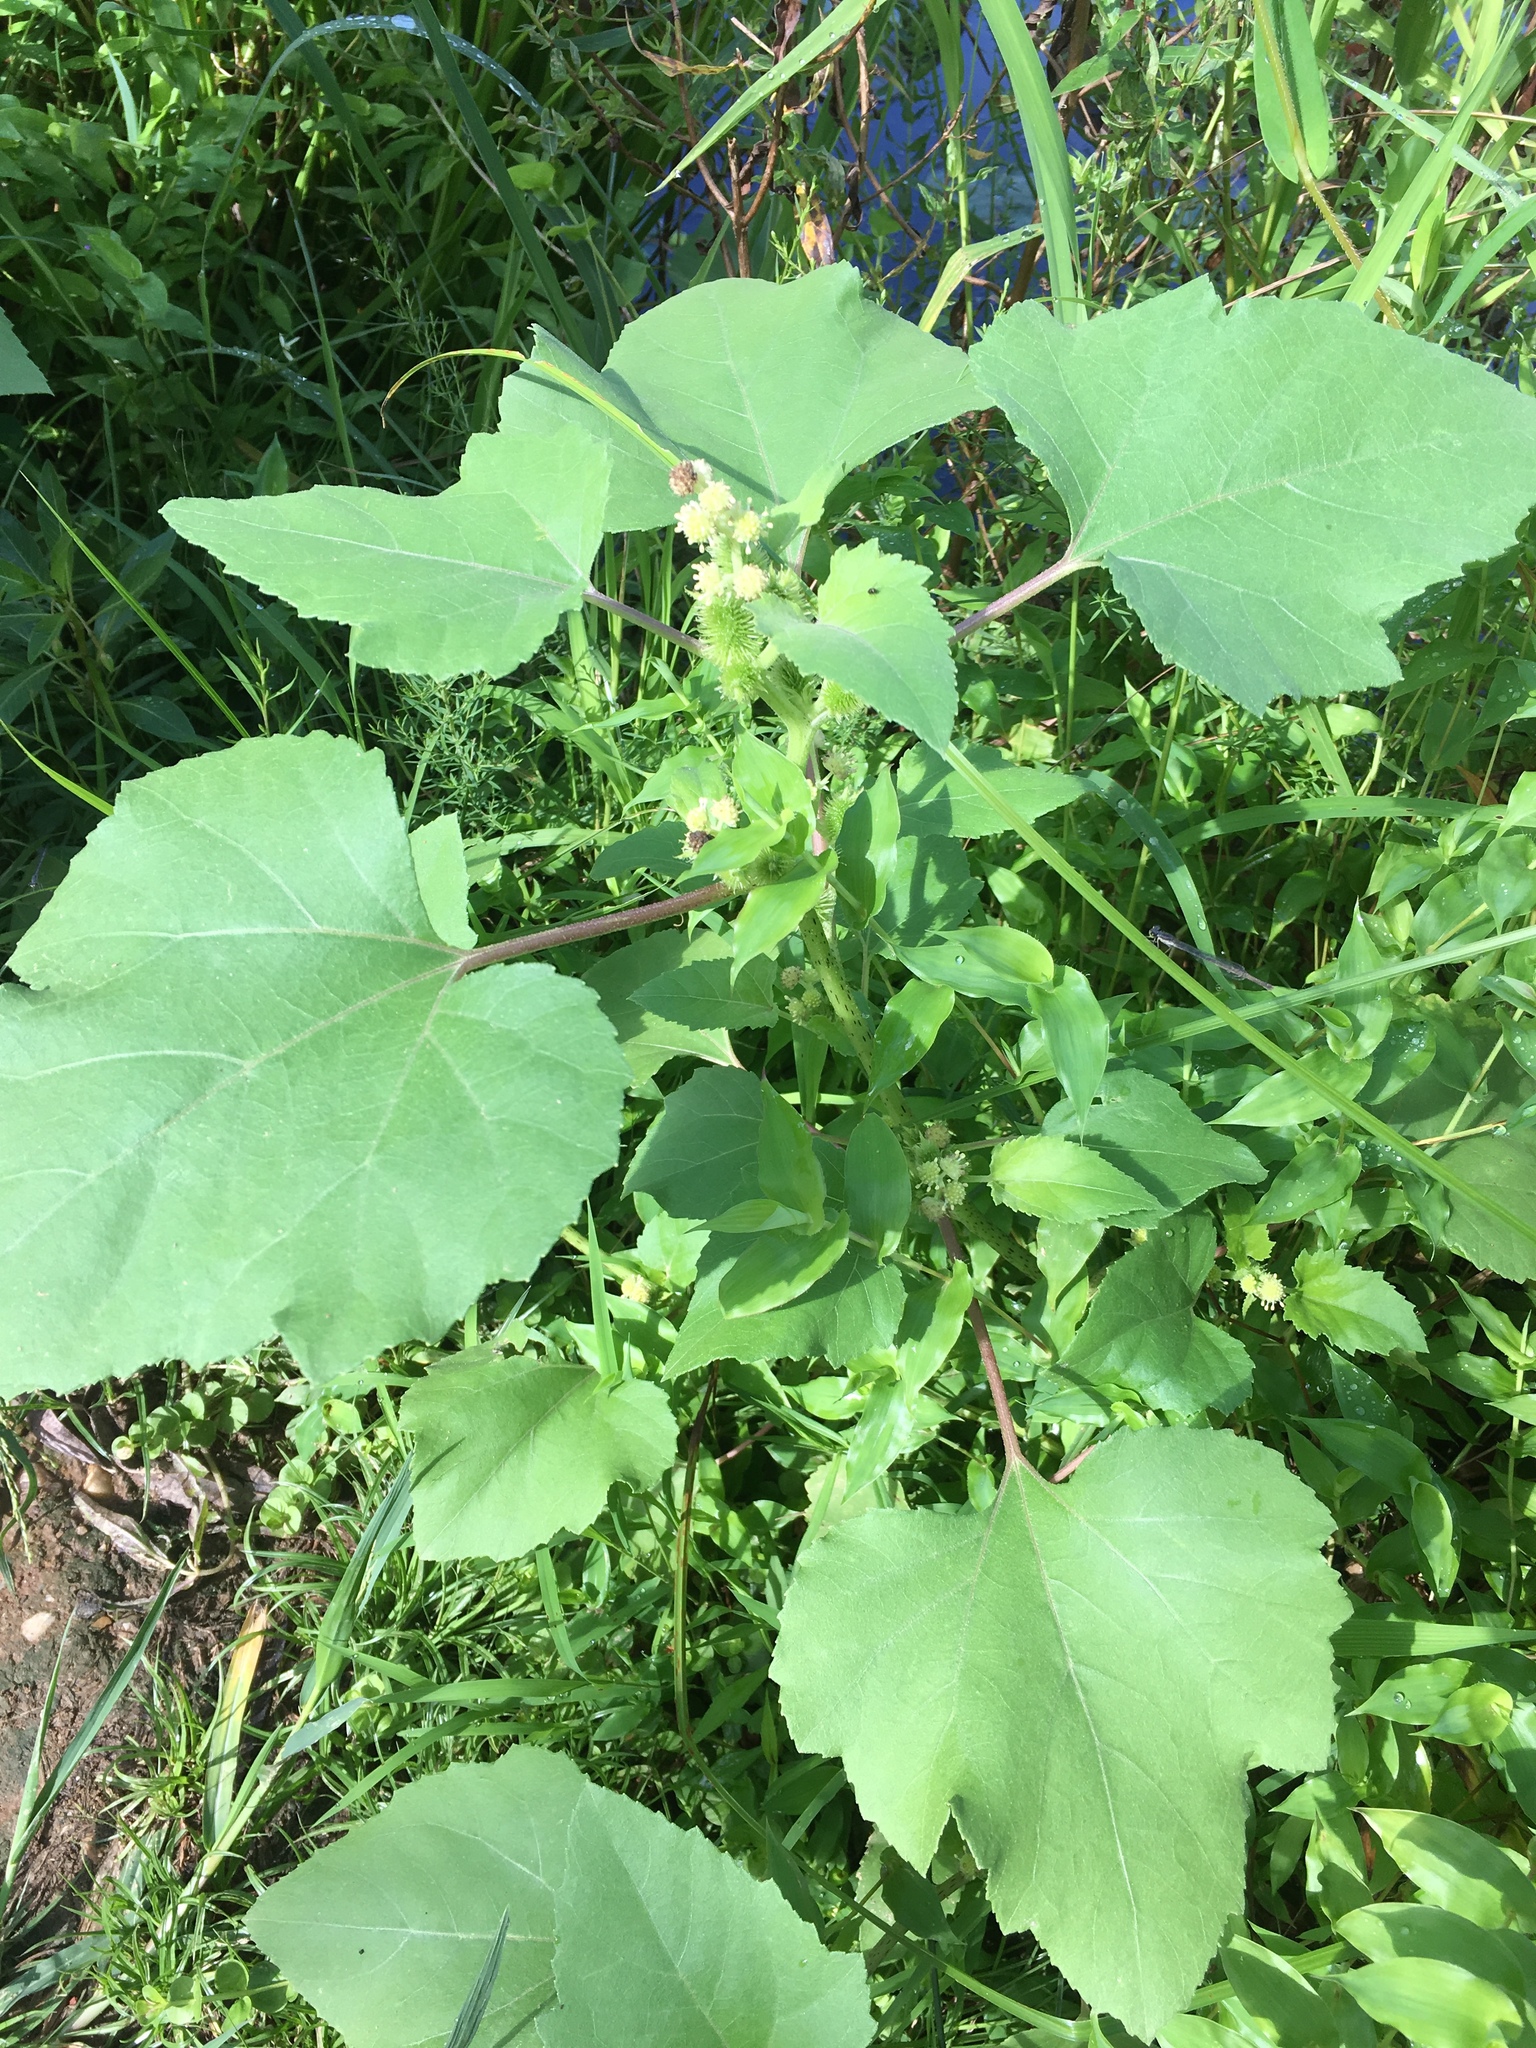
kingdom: Plantae
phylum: Tracheophyta
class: Magnoliopsida
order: Asterales
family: Asteraceae
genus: Xanthium
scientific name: Xanthium strumarium
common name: Rough cocklebur
